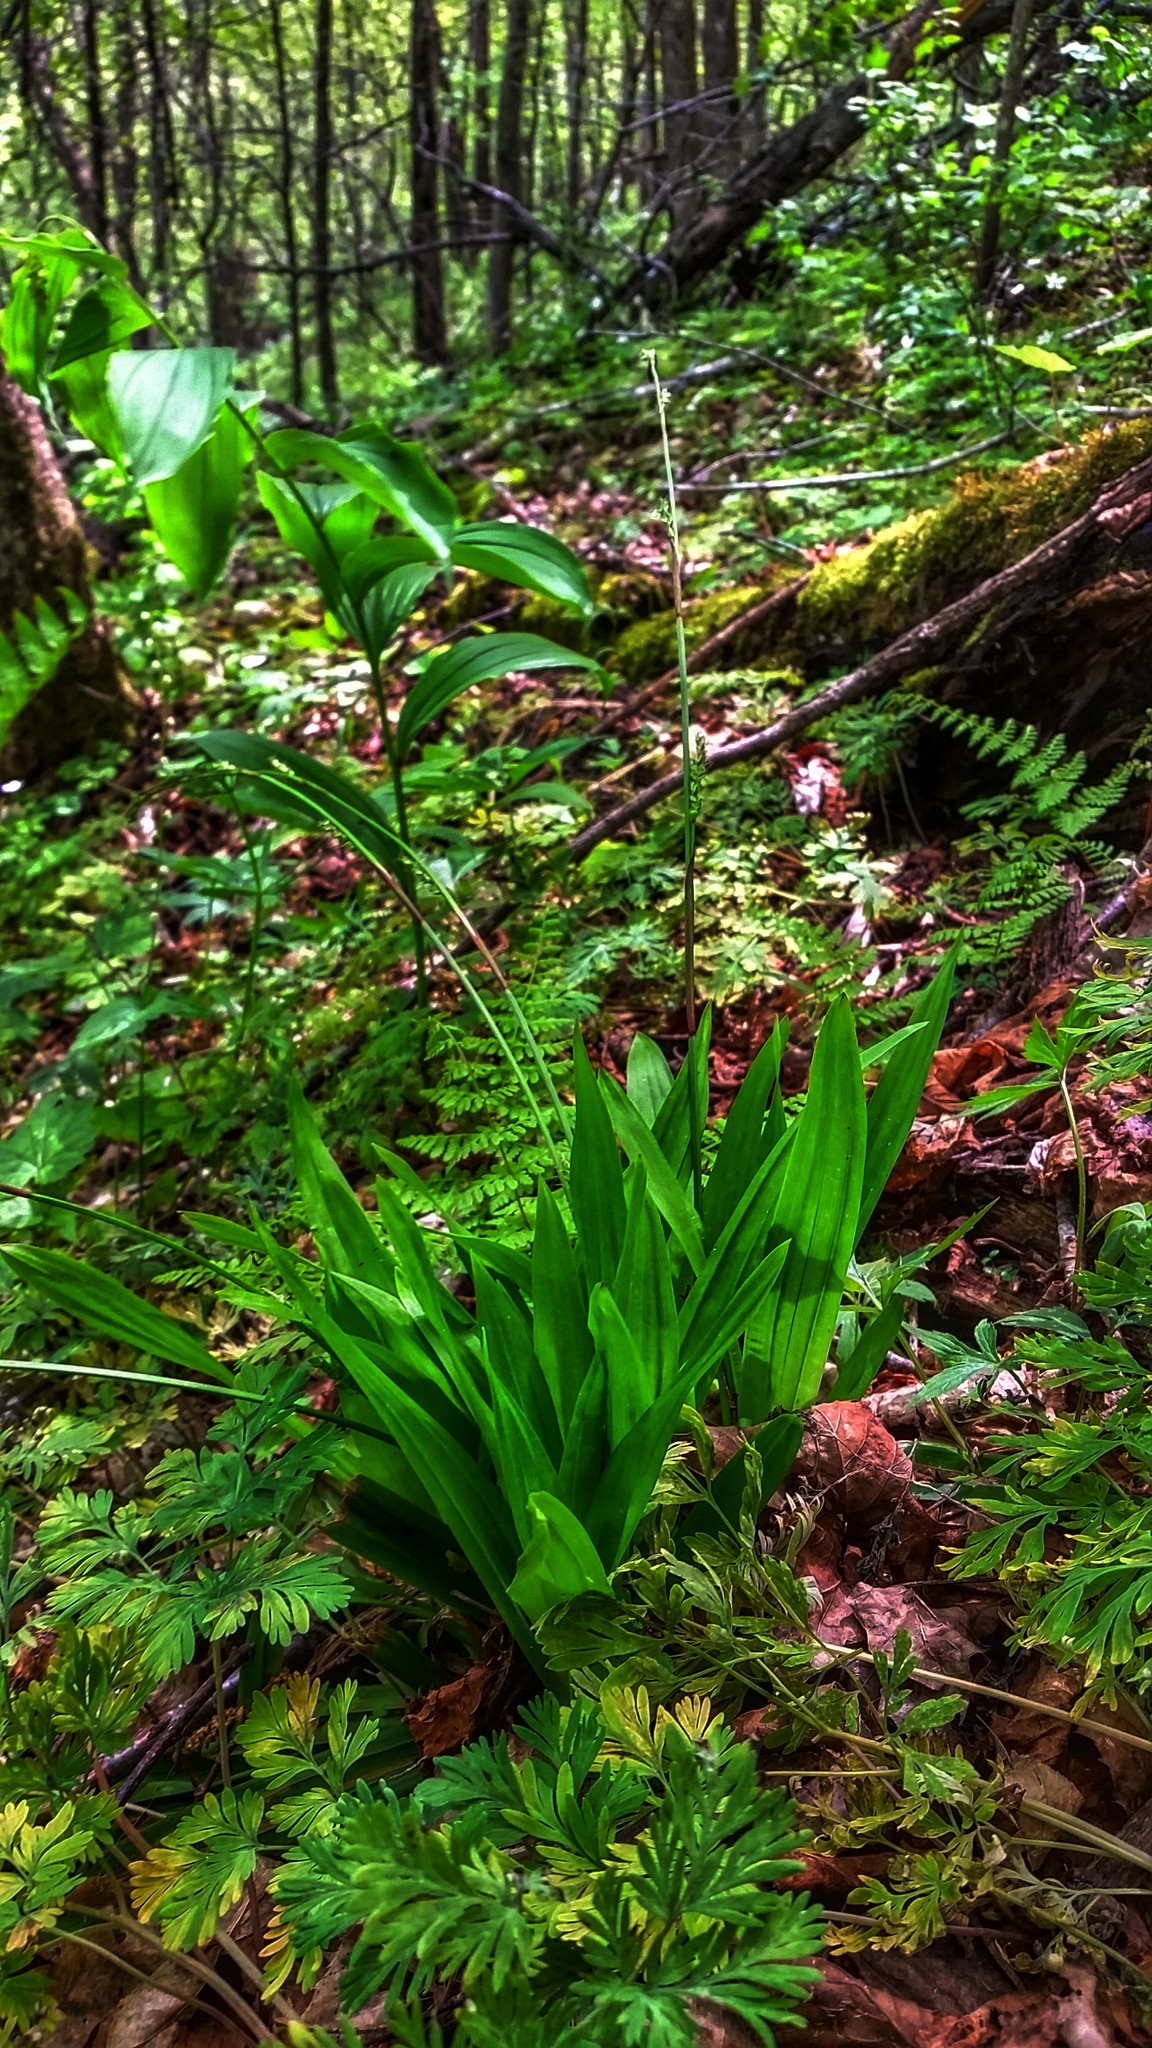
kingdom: Plantae
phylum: Tracheophyta
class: Liliopsida
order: Poales
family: Cyperaceae
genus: Carex
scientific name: Carex plantaginea
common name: Plantain-leaved sedge
